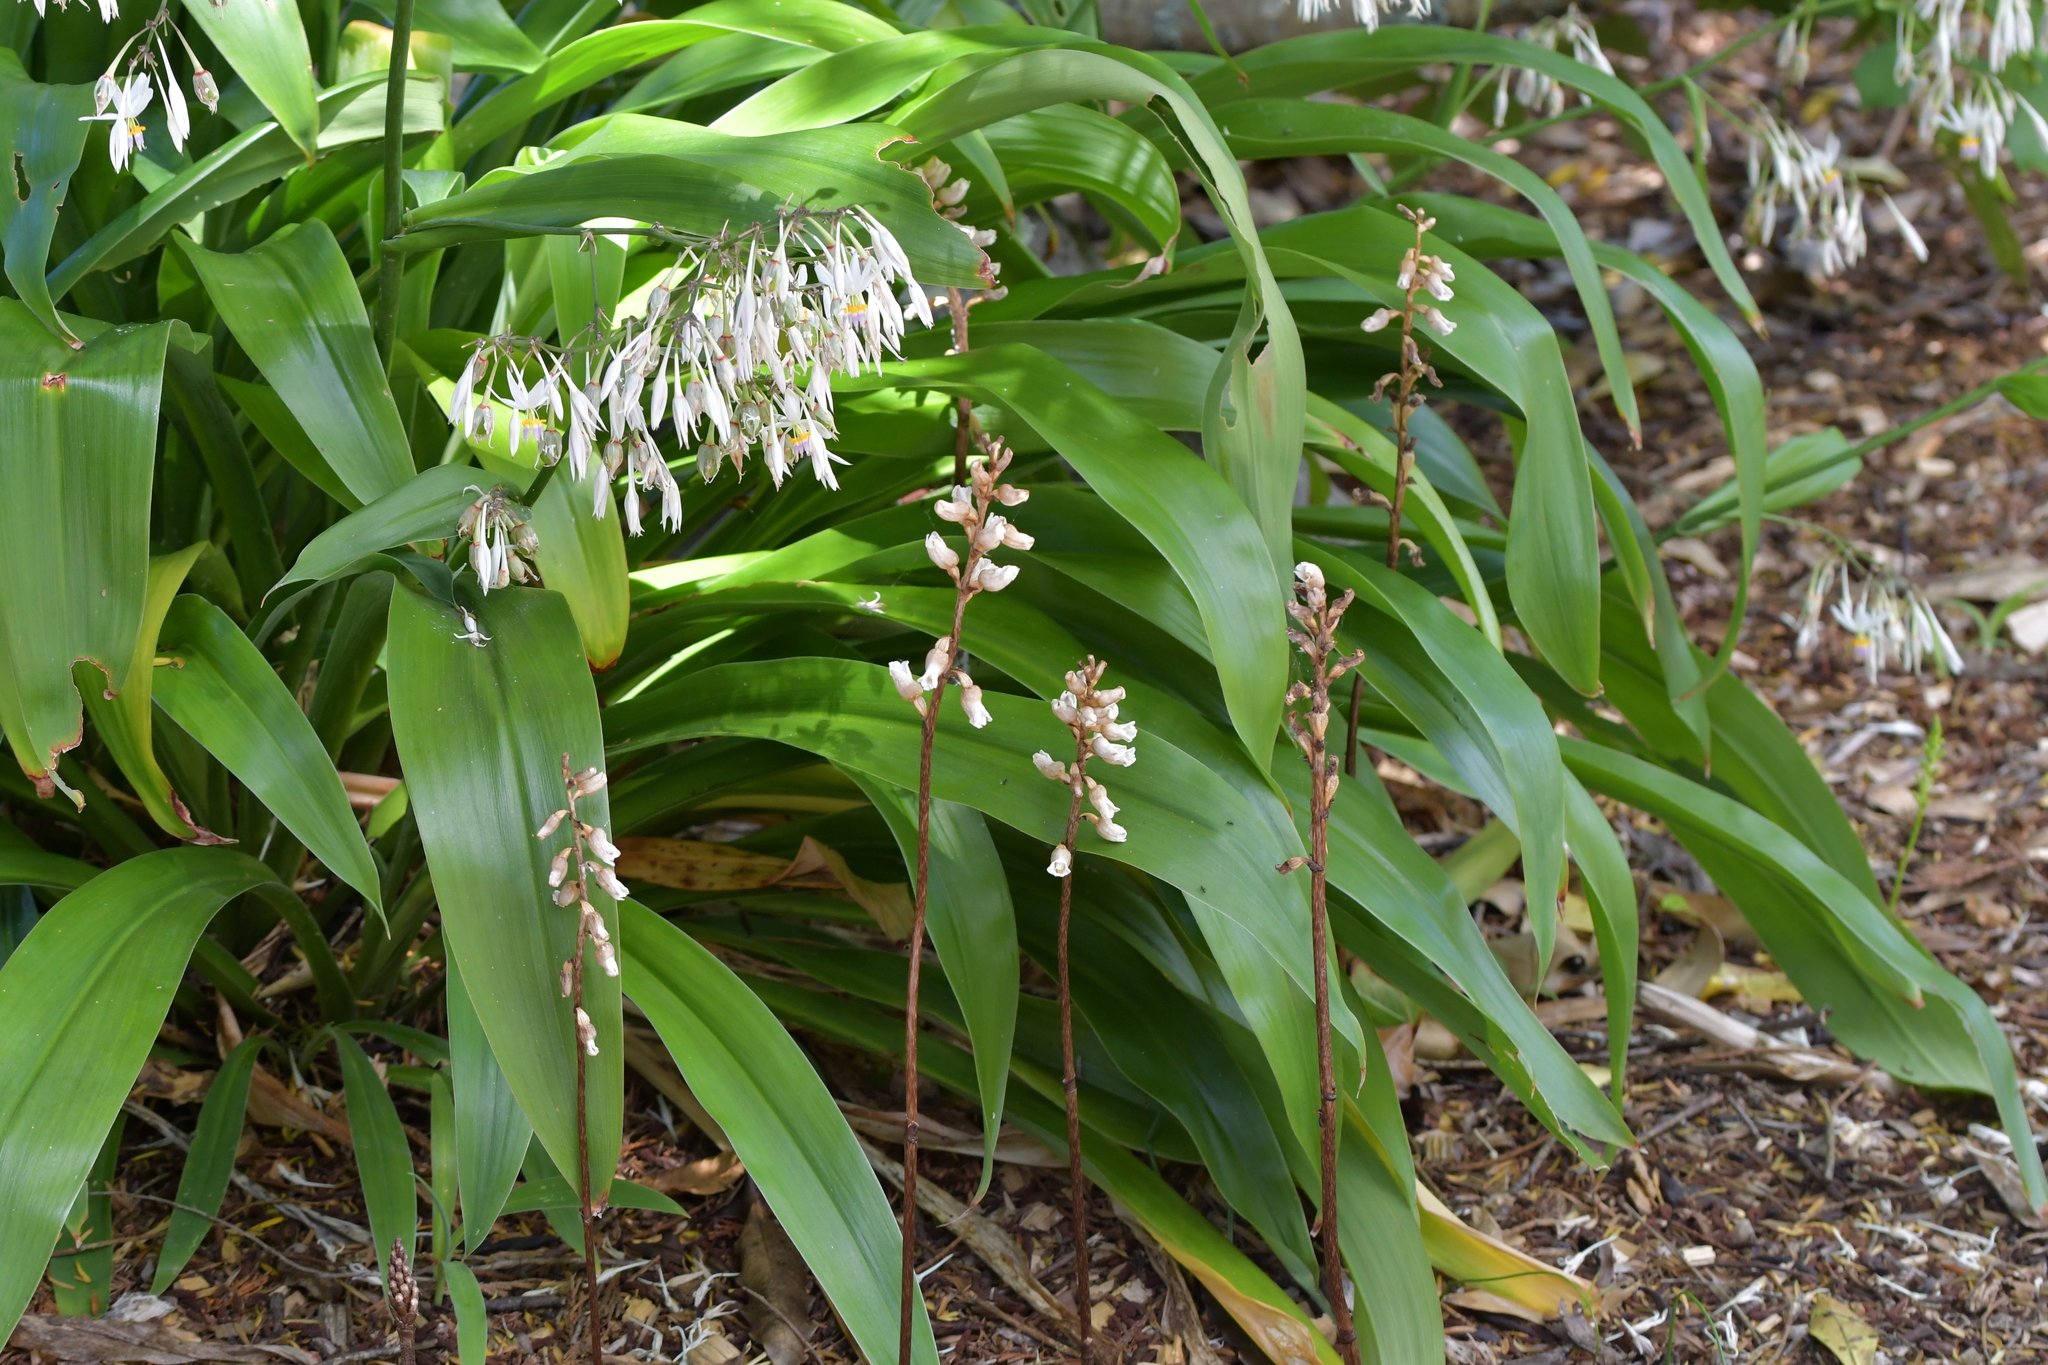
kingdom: Plantae
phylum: Tracheophyta
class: Liliopsida
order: Asparagales
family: Orchidaceae
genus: Gastrodia
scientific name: Gastrodia sesamoides
